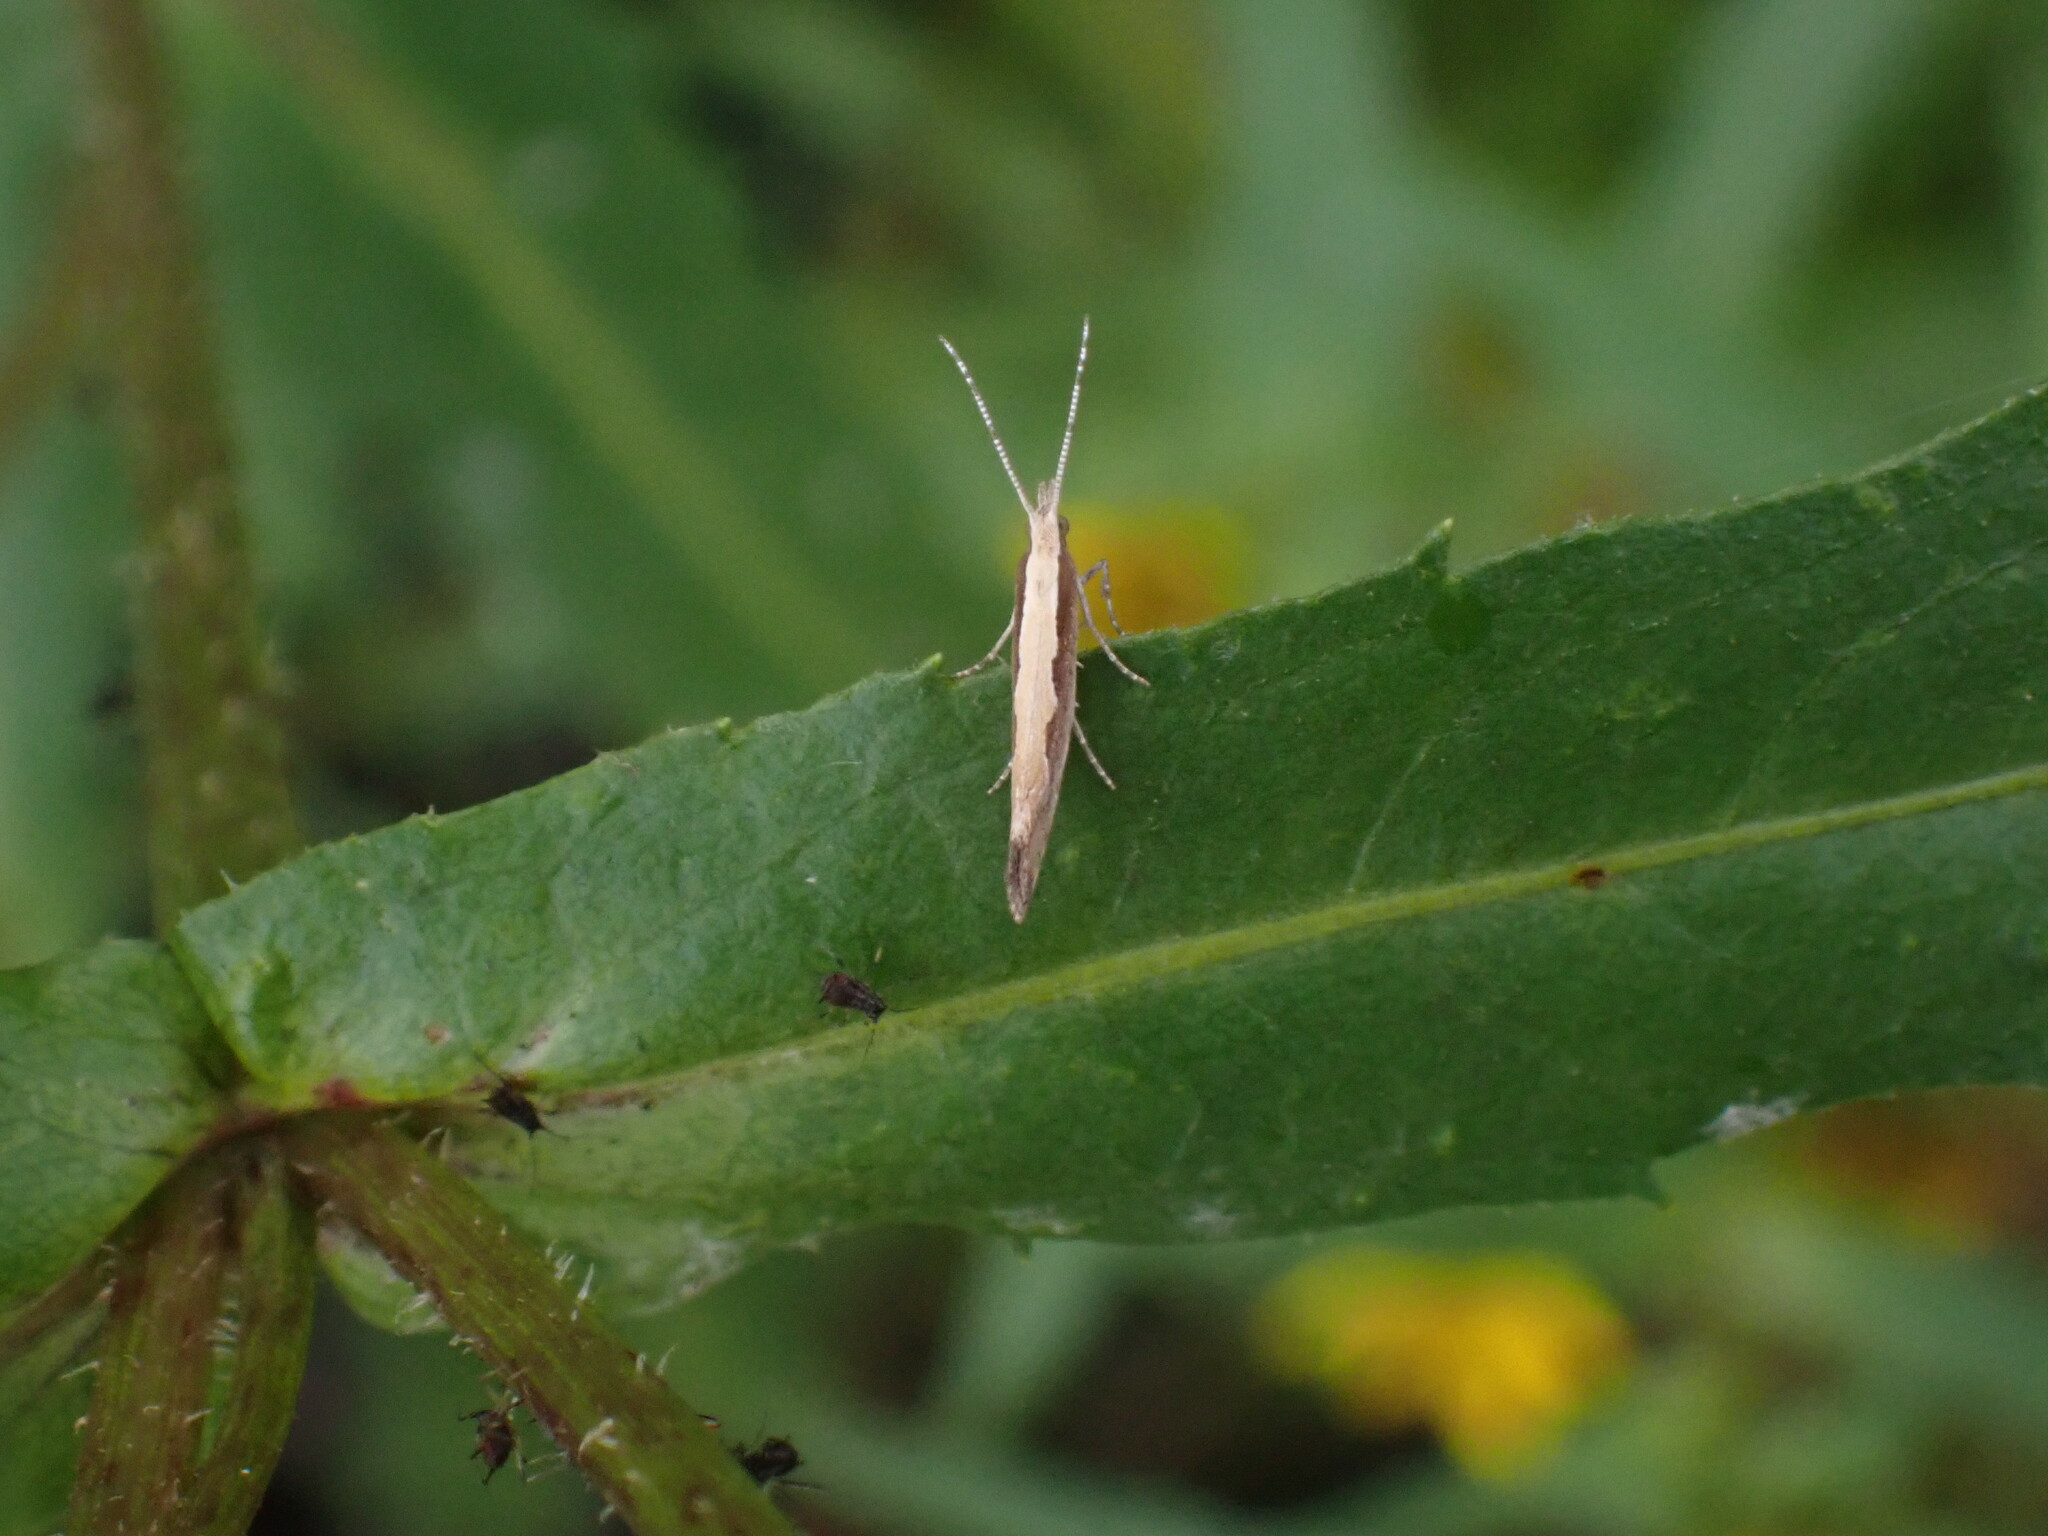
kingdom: Animalia
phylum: Arthropoda
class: Insecta
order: Lepidoptera
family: Plutellidae
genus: Plutella
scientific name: Plutella xylostella
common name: Diamond-back moth
